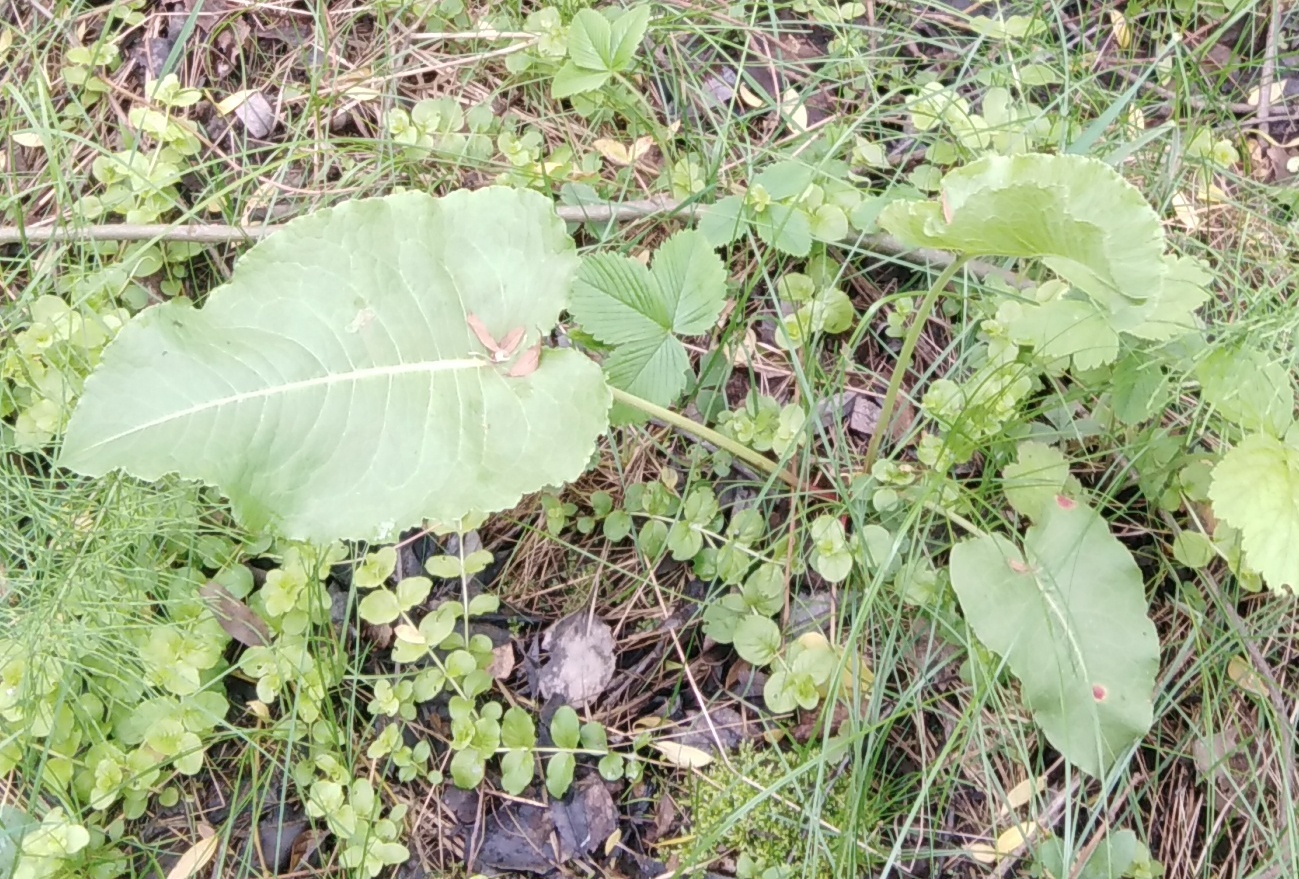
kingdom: Plantae
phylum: Tracheophyta
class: Magnoliopsida
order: Caryophyllales
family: Polygonaceae
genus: Rumex
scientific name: Rumex confertus
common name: Russian dock
